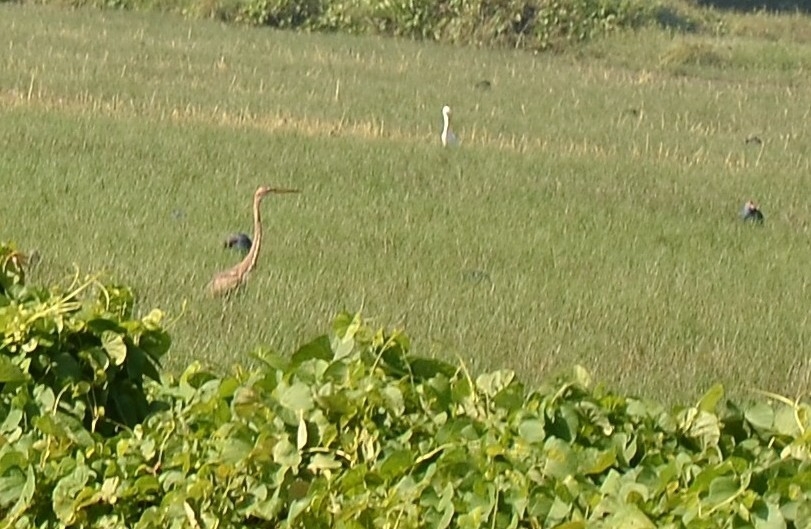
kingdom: Animalia
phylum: Chordata
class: Aves
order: Pelecaniformes
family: Ardeidae
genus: Ardea
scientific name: Ardea purpurea
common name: Purple heron
